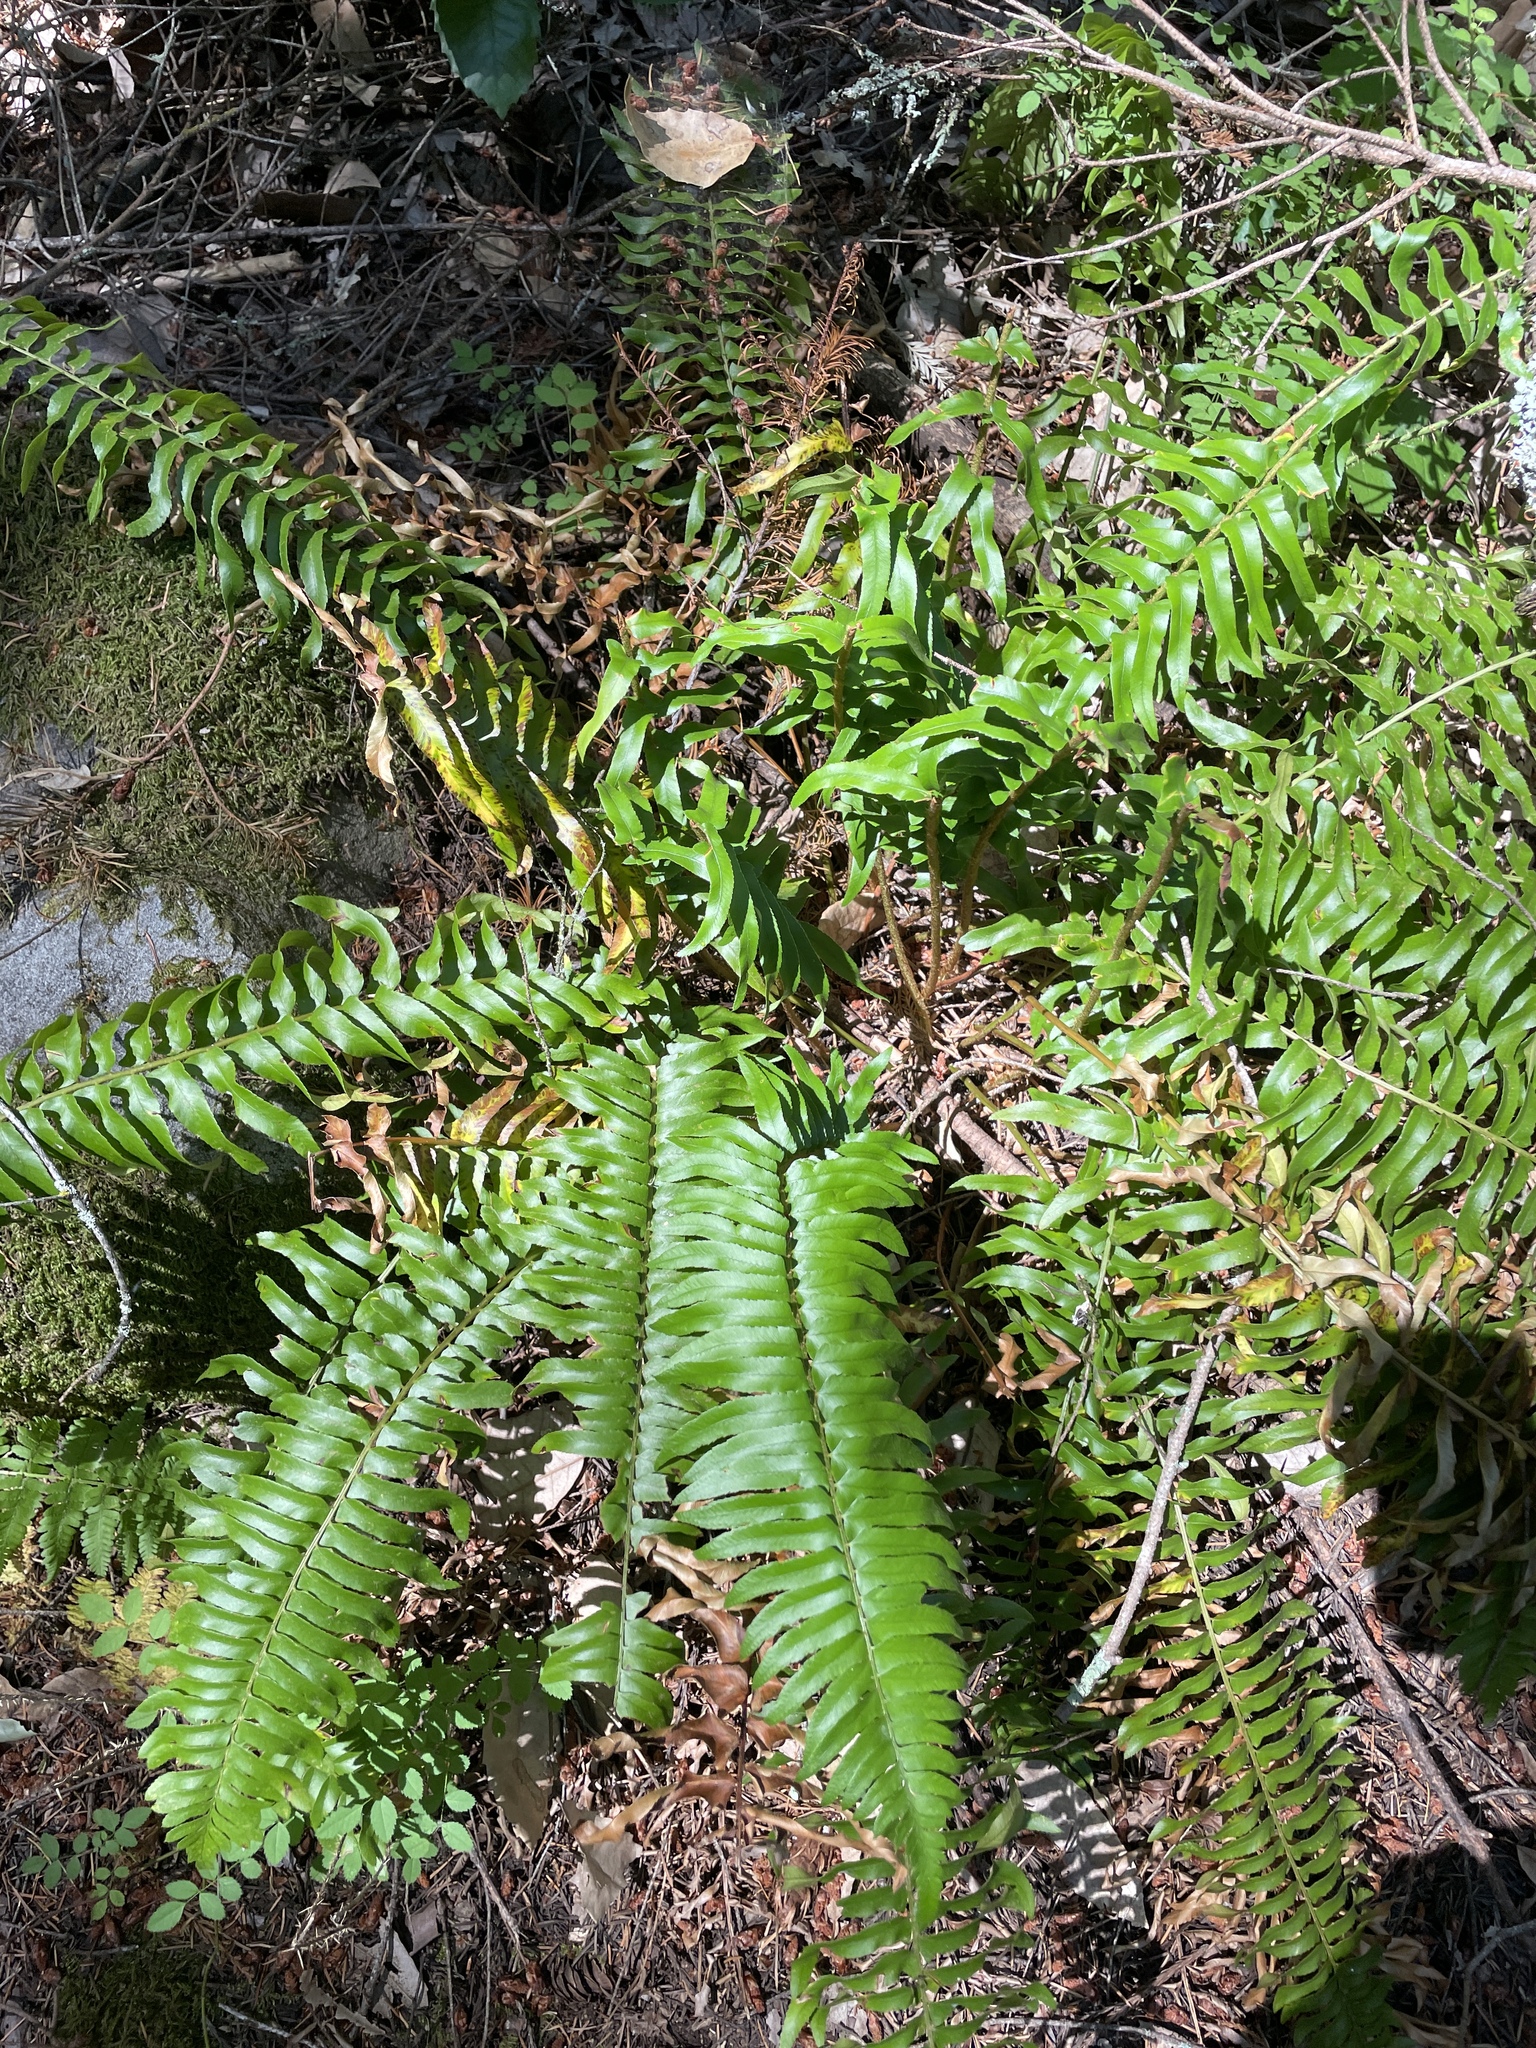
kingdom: Plantae
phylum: Tracheophyta
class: Polypodiopsida
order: Polypodiales
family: Dryopteridaceae
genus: Polystichum
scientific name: Polystichum munitum
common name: Western sword-fern
